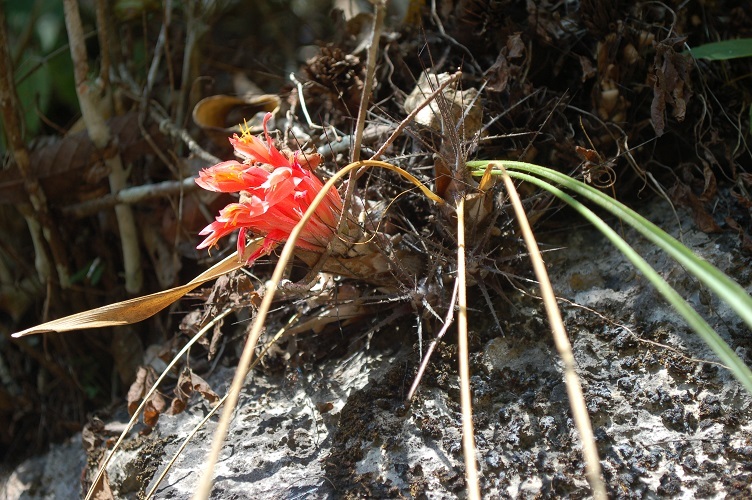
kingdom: Plantae
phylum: Tracheophyta
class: Liliopsida
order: Poales
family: Bromeliaceae
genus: Pitcairnia
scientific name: Pitcairnia heterophylla
